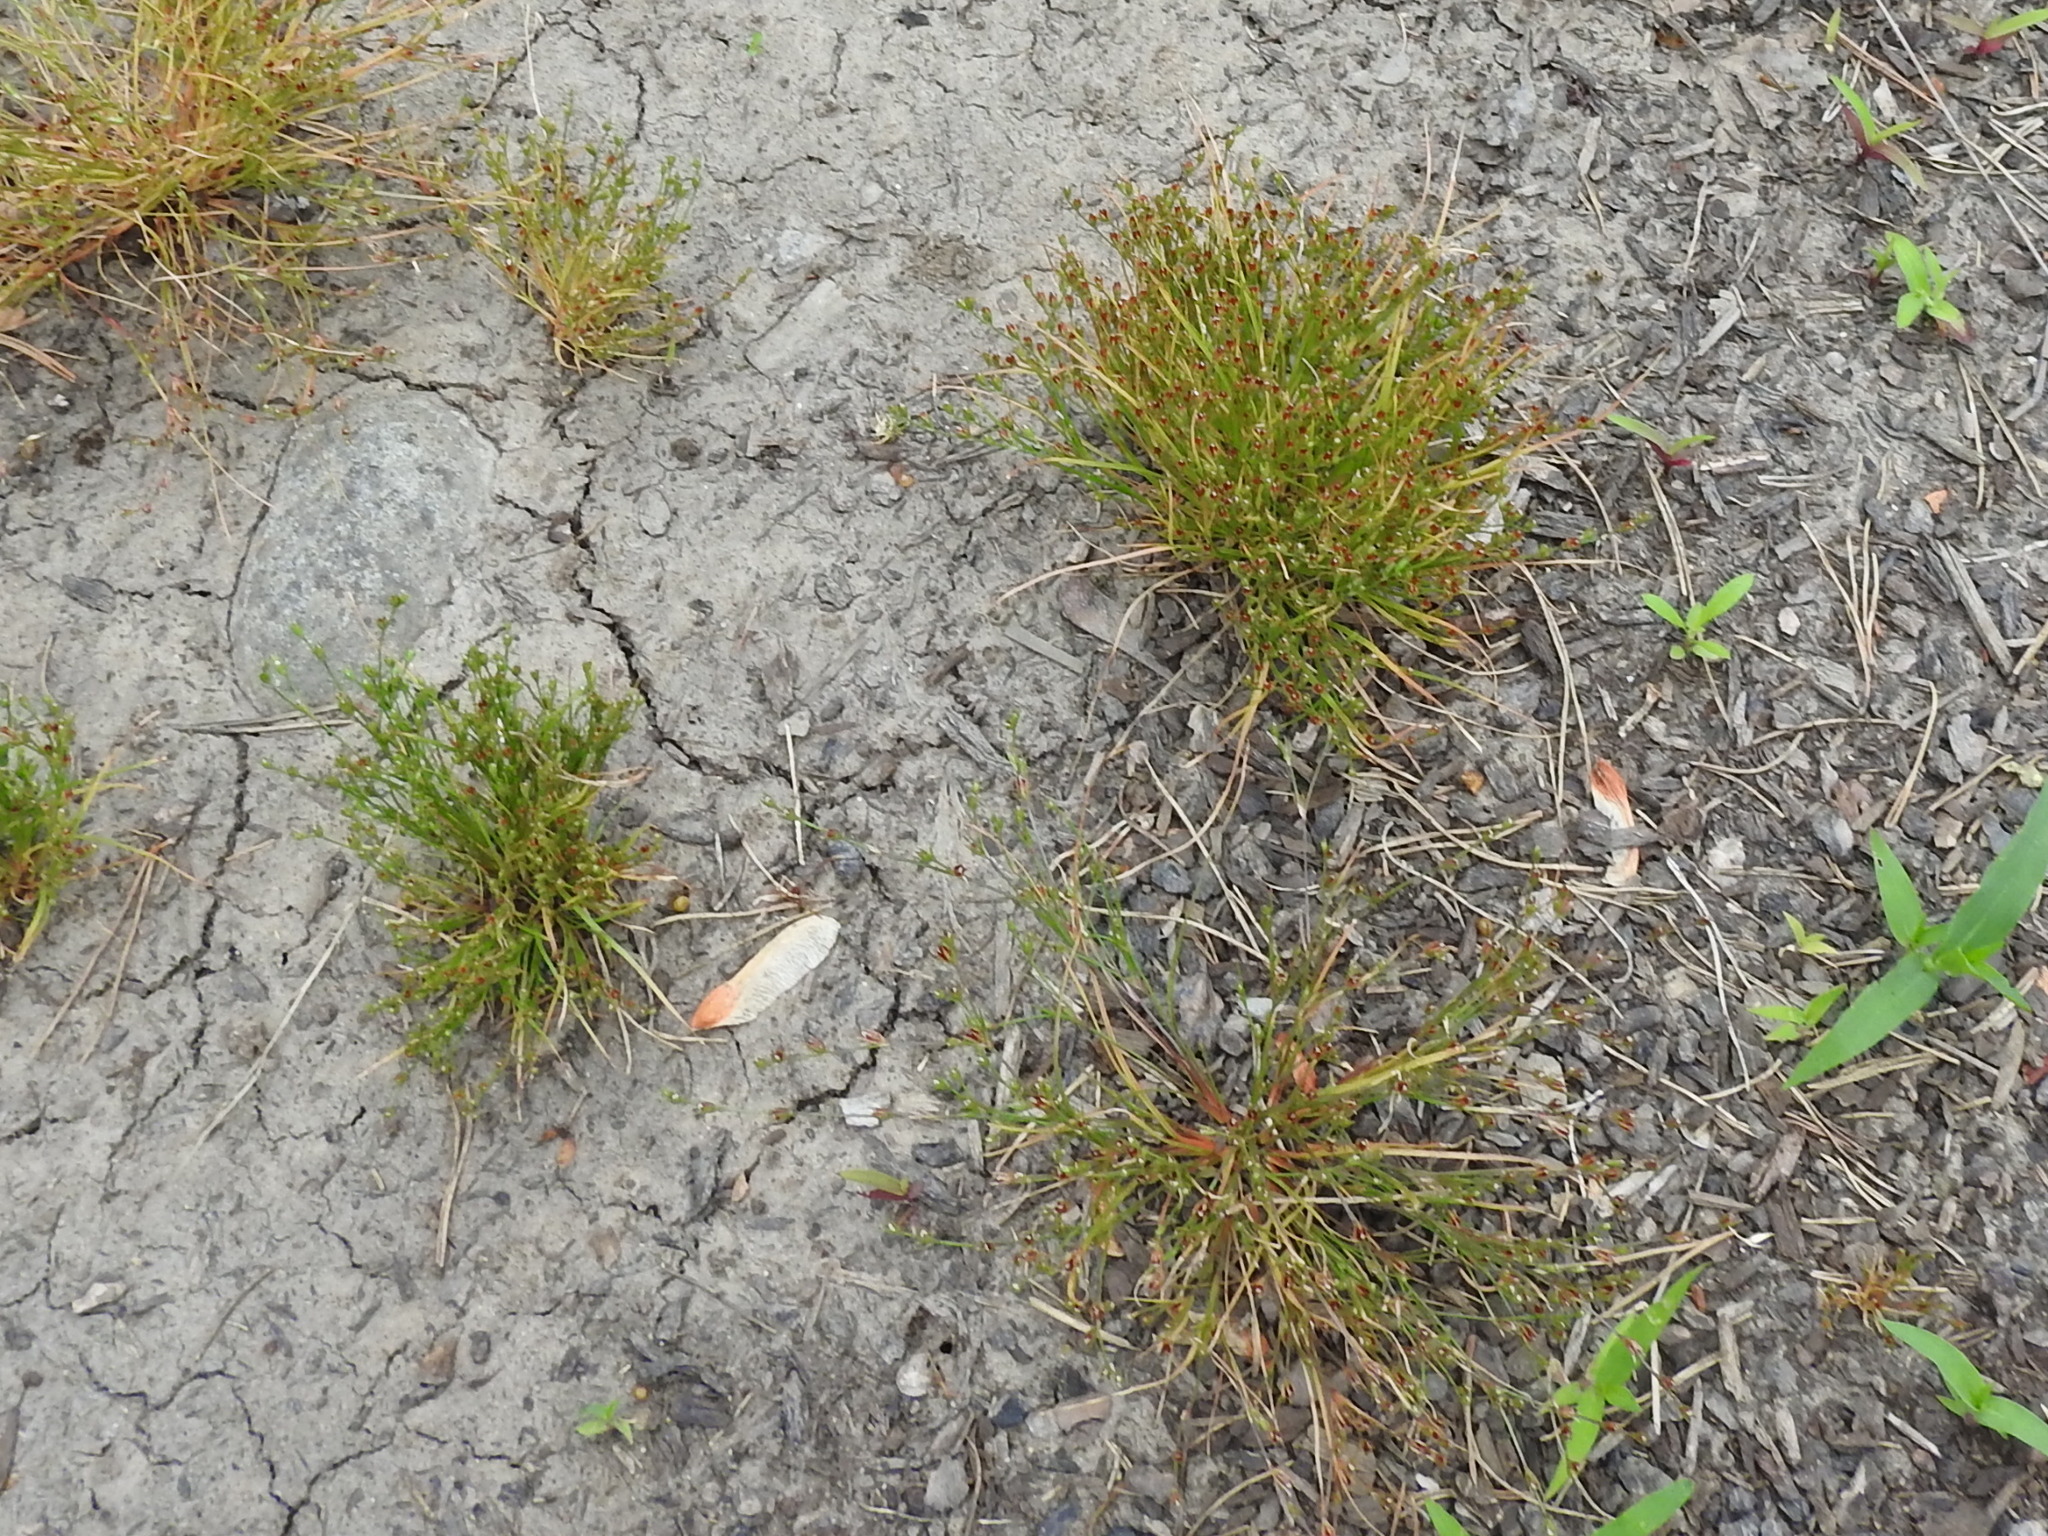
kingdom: Plantae
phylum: Tracheophyta
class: Liliopsida
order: Poales
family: Juncaceae
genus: Juncus
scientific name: Juncus bufonius
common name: Toad rush
